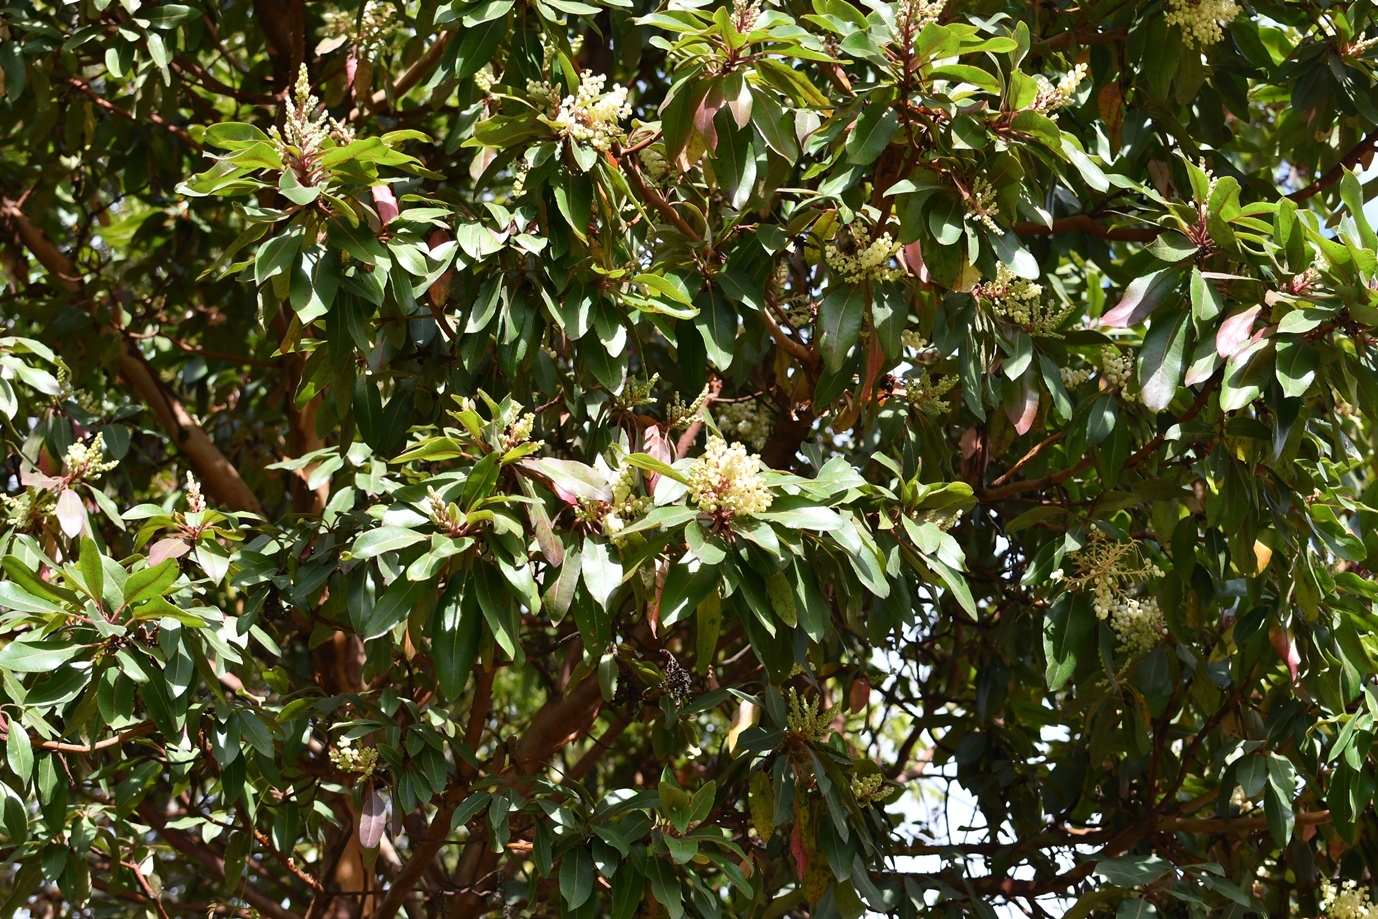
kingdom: Plantae
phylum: Tracheophyta
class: Magnoliopsida
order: Ericales
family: Ericaceae
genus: Arbutus
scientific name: Arbutus xalapensis
